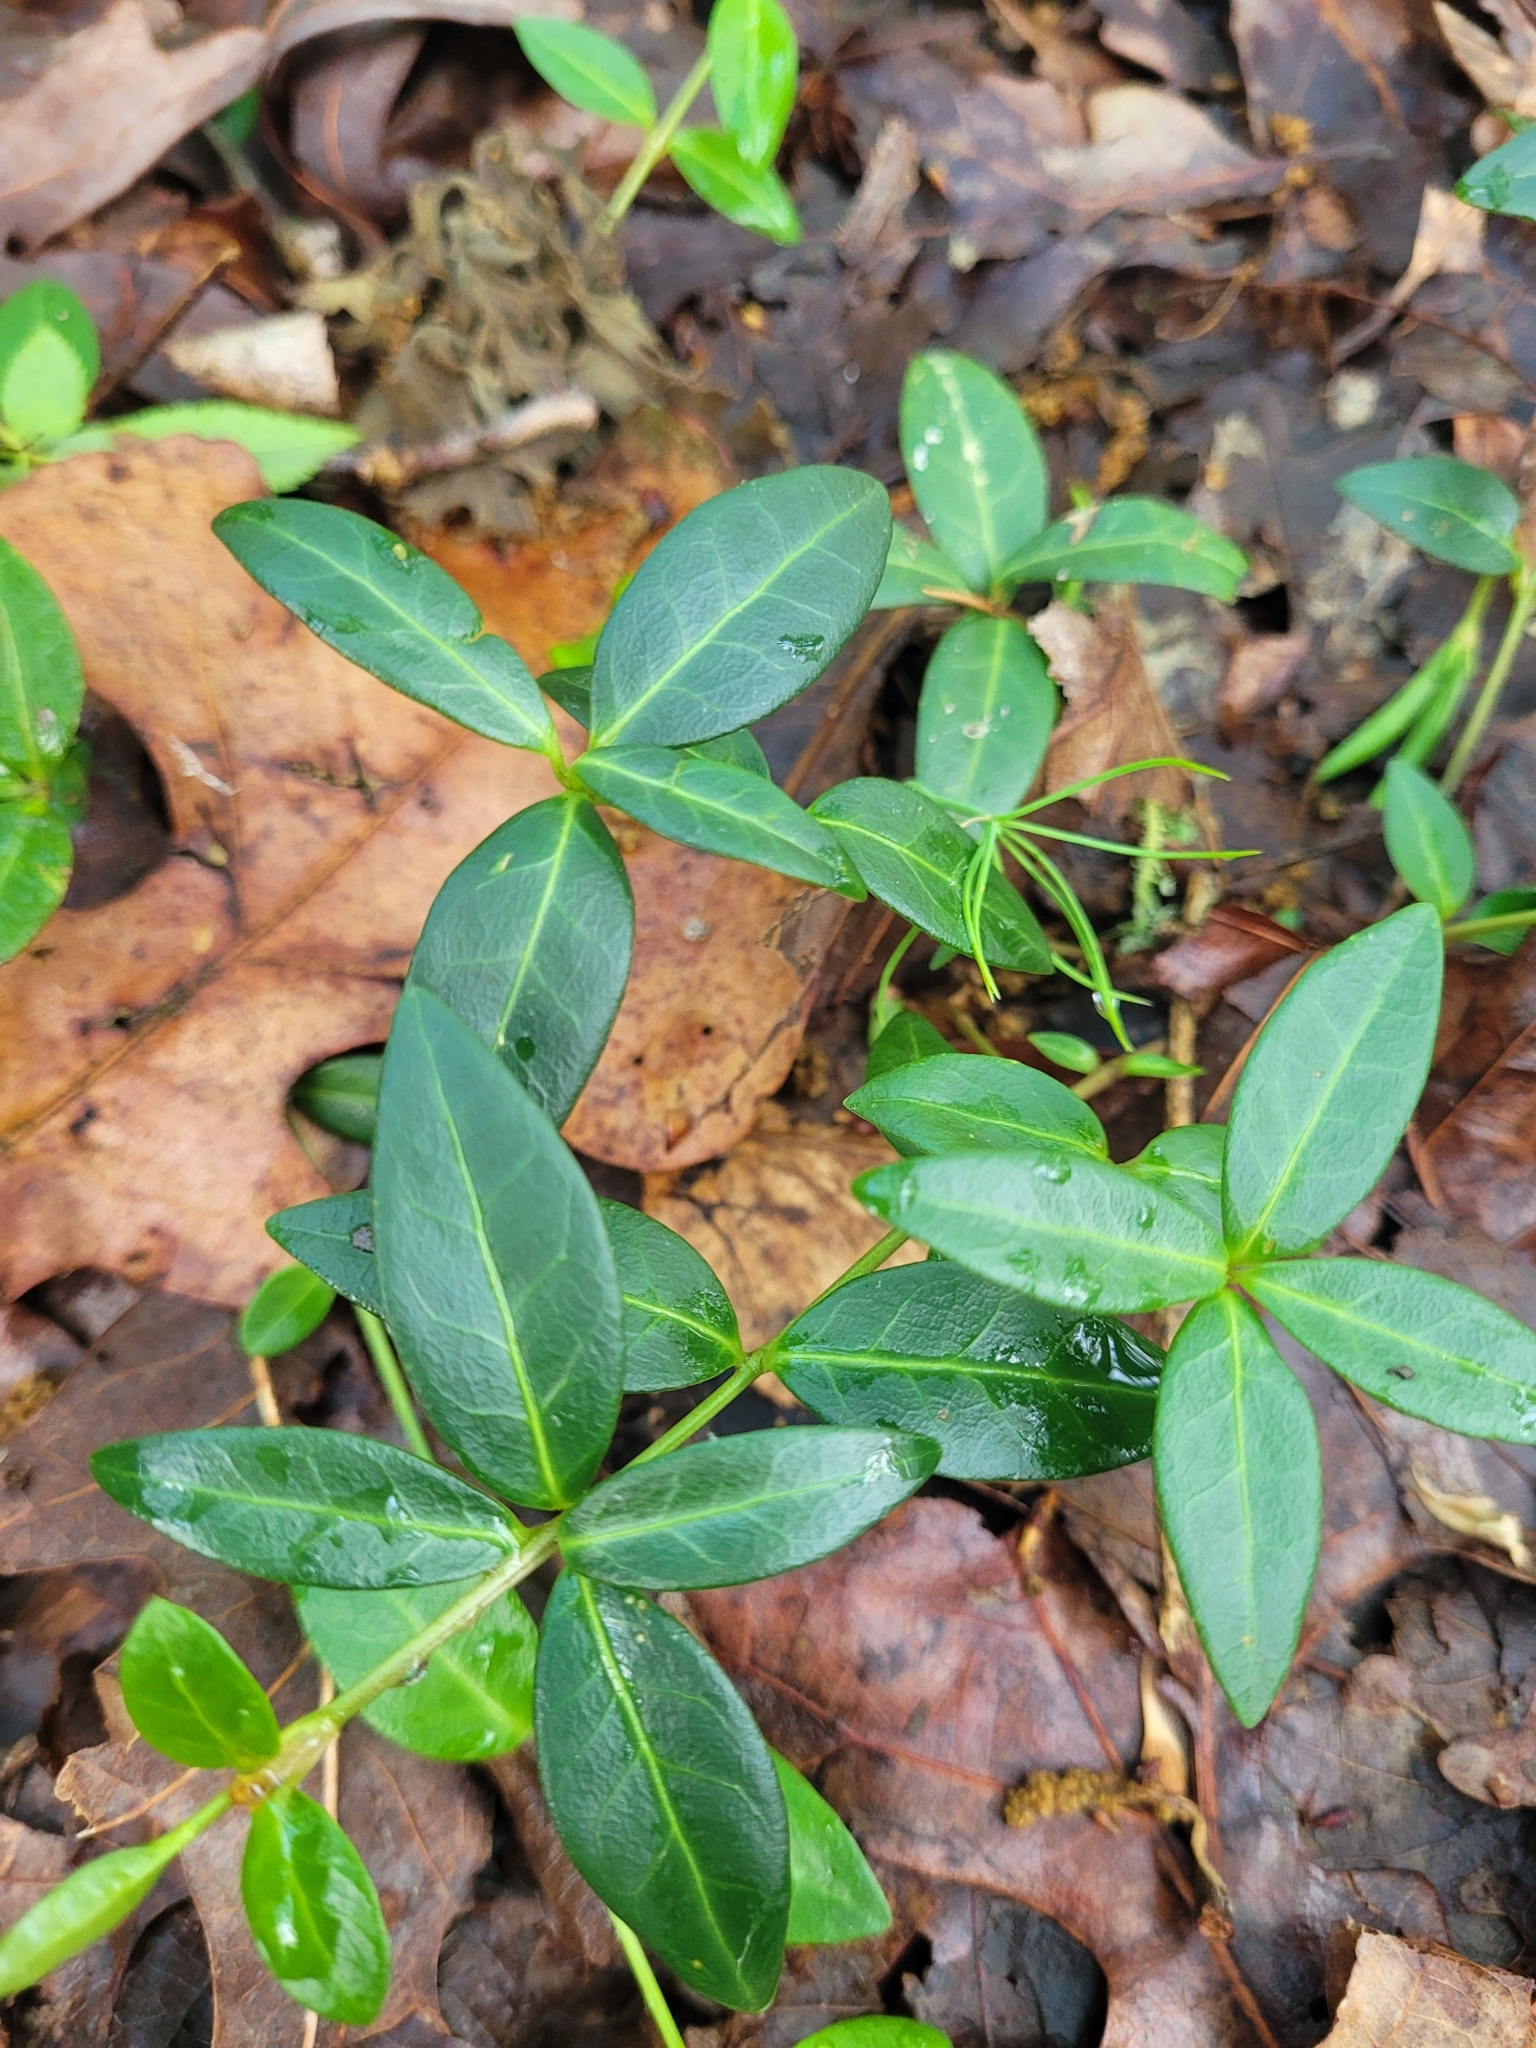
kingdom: Plantae
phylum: Tracheophyta
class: Magnoliopsida
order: Gentianales
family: Apocynaceae
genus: Vinca
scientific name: Vinca minor
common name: Lesser periwinkle
